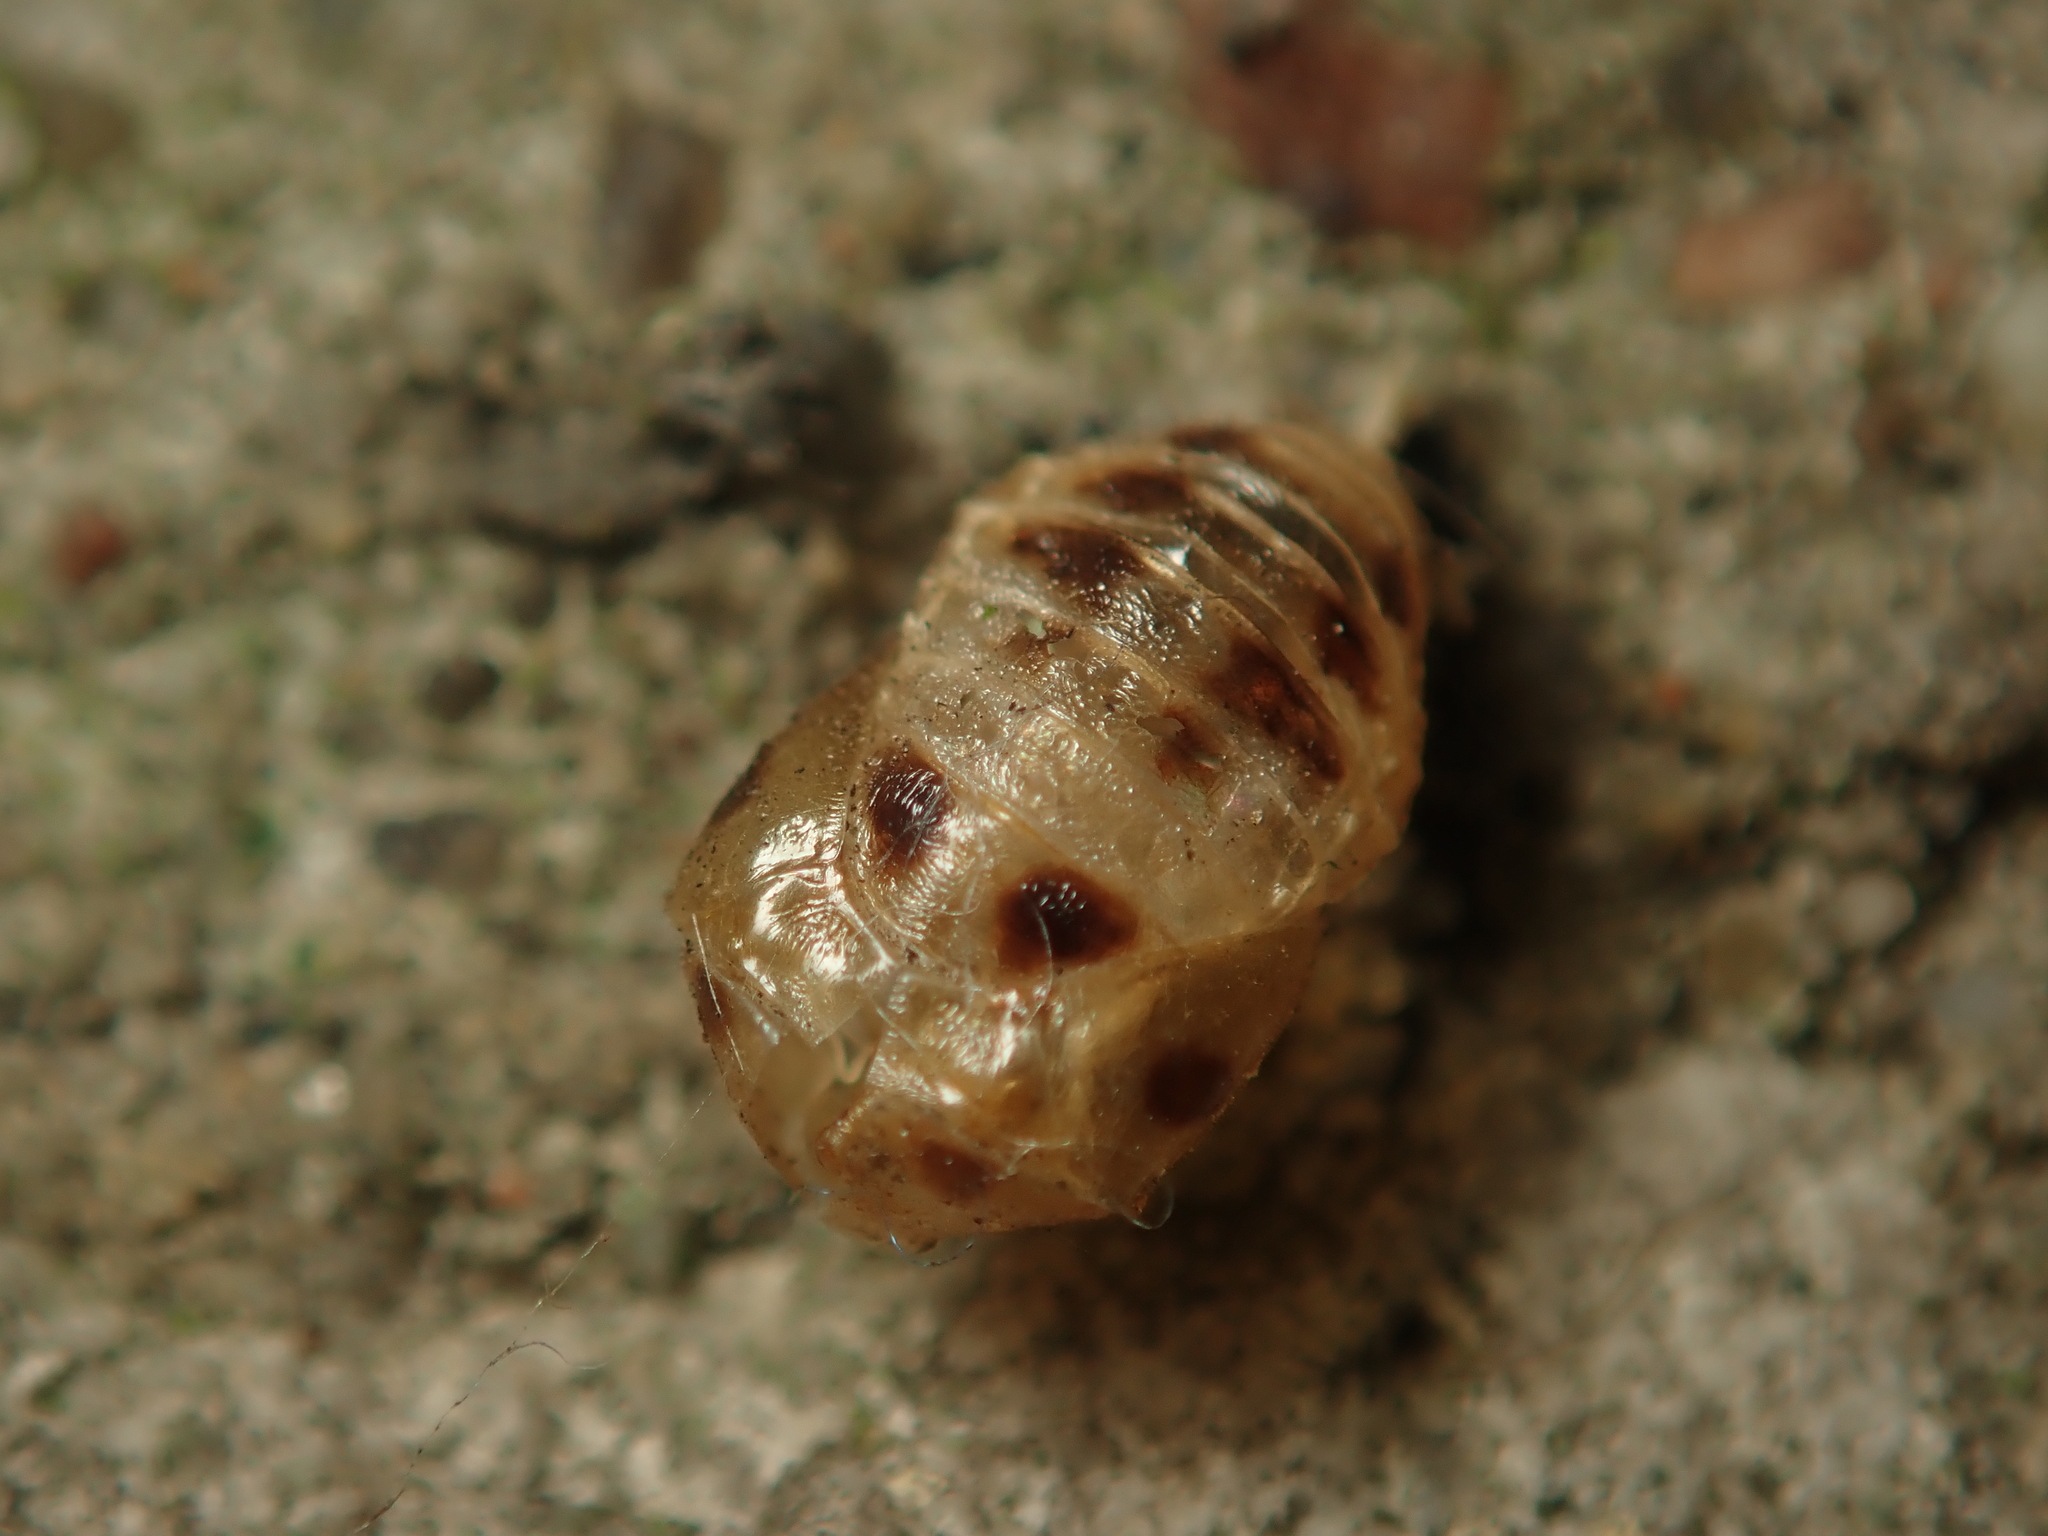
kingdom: Animalia
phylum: Arthropoda
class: Insecta
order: Coleoptera
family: Coccinellidae
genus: Harmonia
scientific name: Harmonia axyridis
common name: Harlequin ladybird
